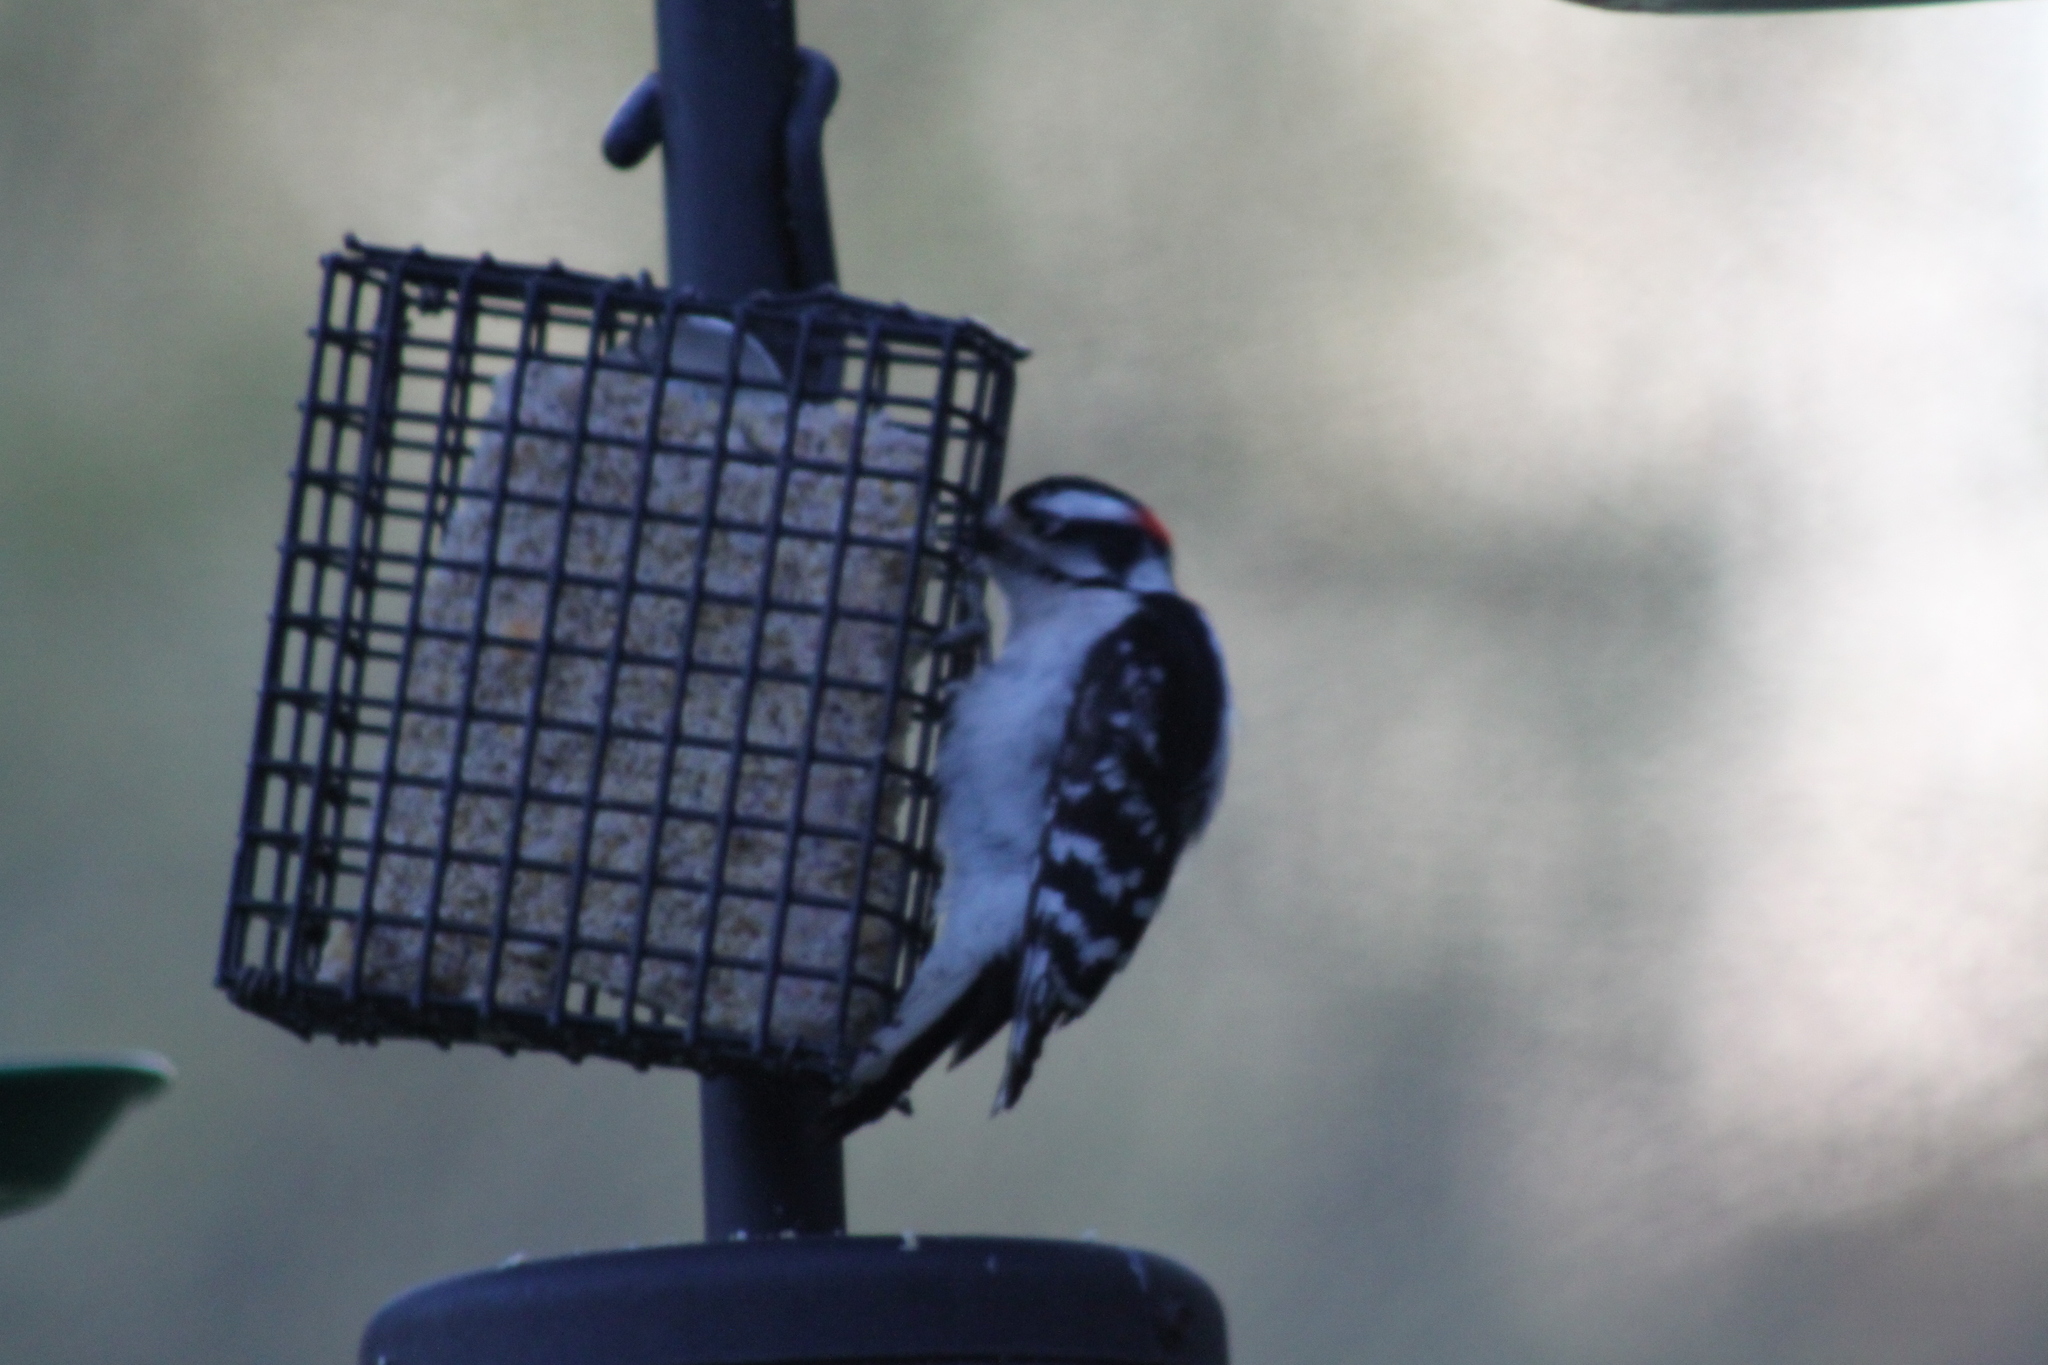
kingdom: Animalia
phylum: Chordata
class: Aves
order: Piciformes
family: Picidae
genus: Dryobates
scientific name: Dryobates pubescens
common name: Downy woodpecker
